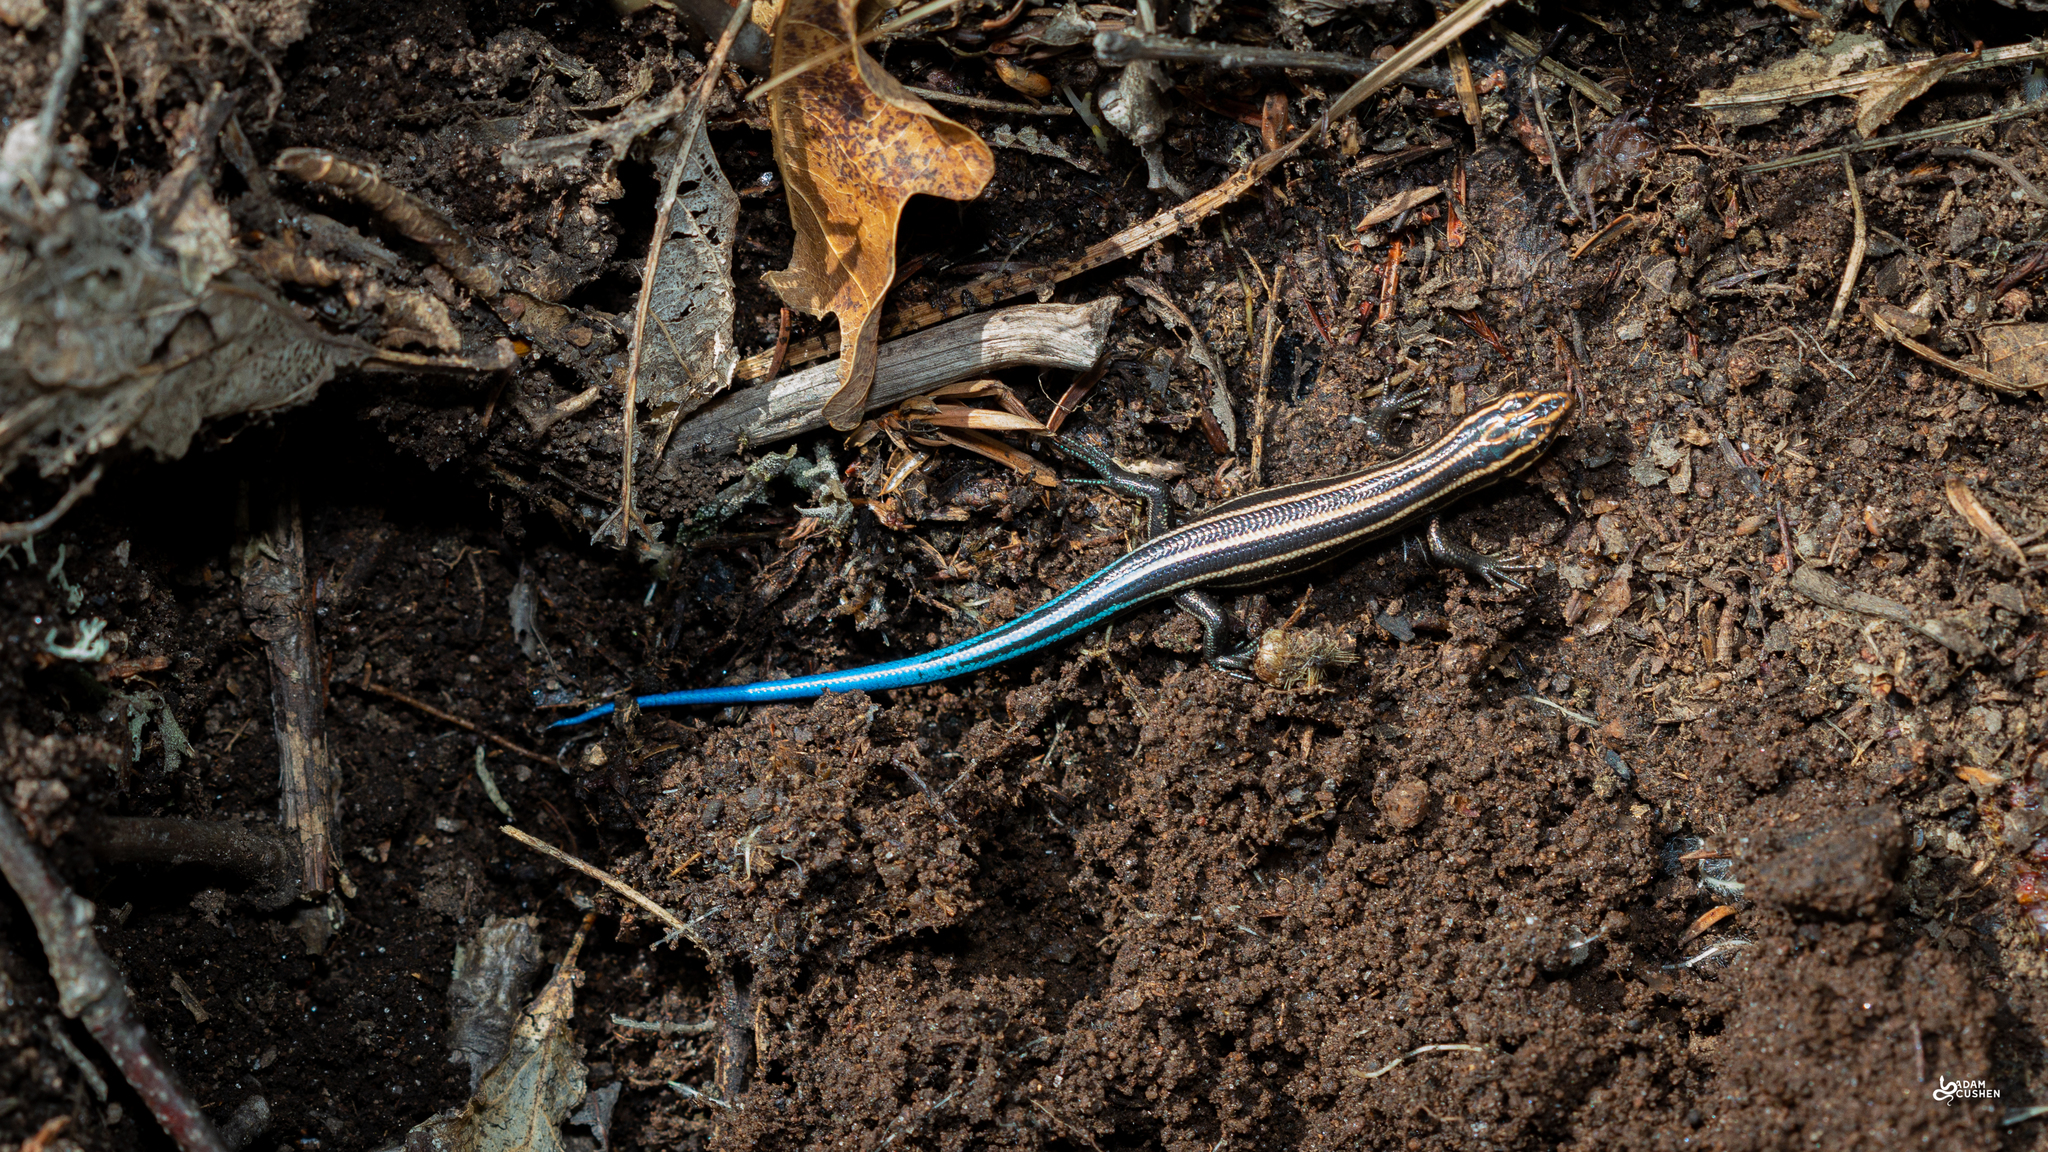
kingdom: Animalia
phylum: Chordata
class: Squamata
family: Scincidae
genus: Plestiodon
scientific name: Plestiodon fasciatus
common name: Five-lined skink
